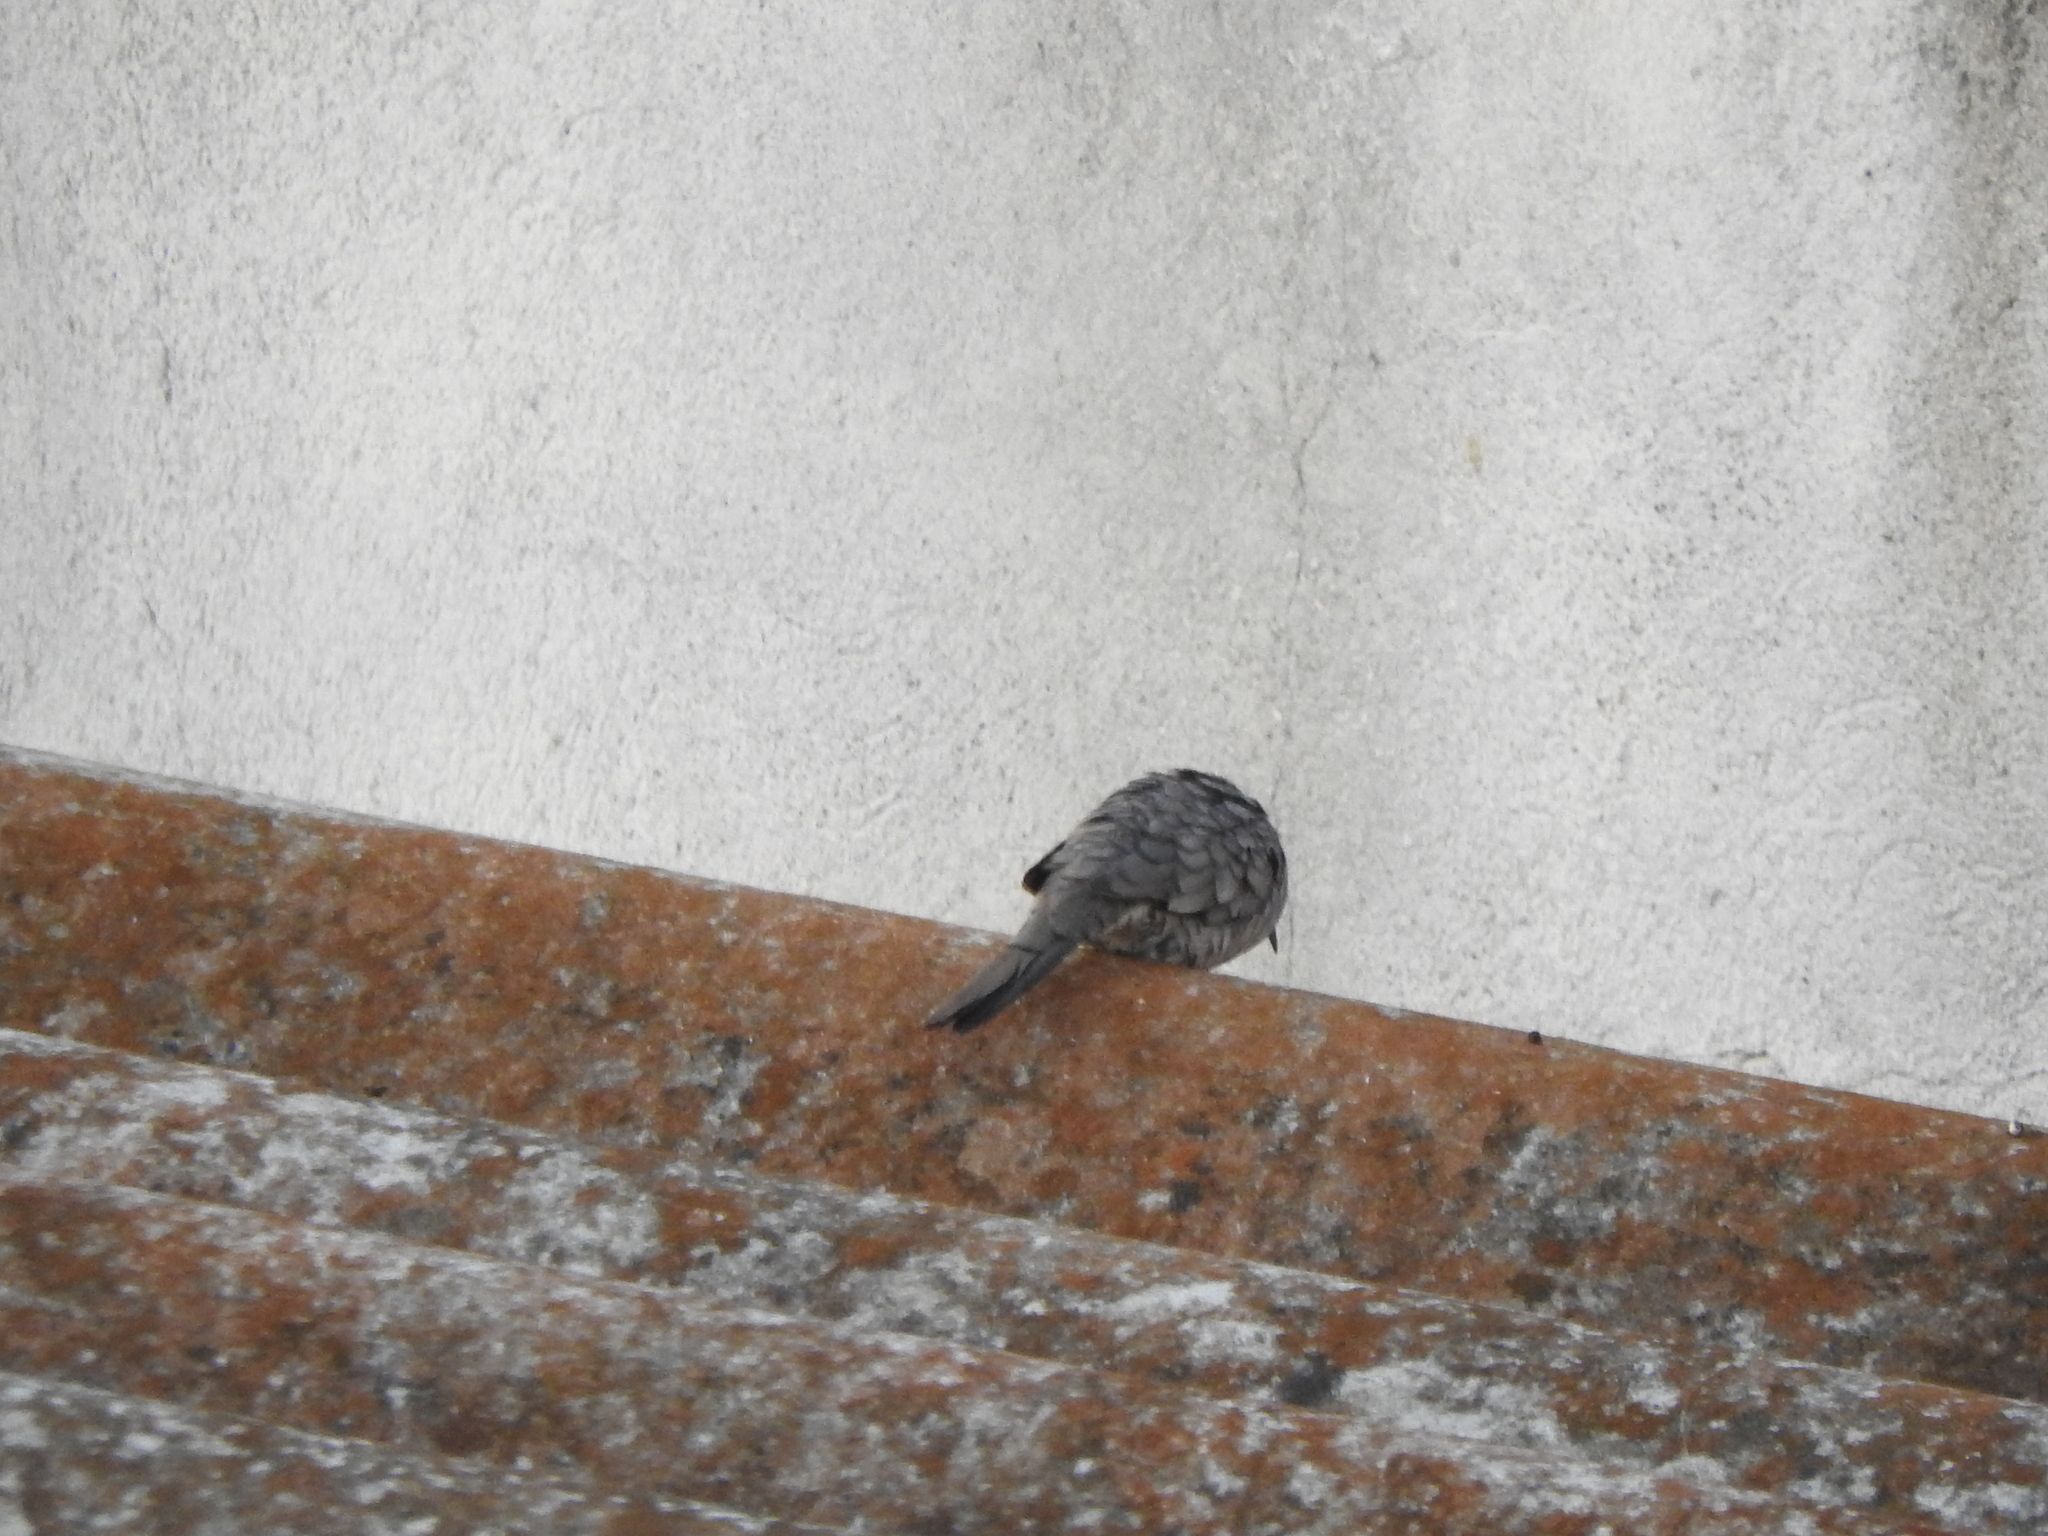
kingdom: Animalia
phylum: Chordata
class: Aves
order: Columbiformes
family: Columbidae
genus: Columbina
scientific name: Columbina inca
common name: Inca dove
